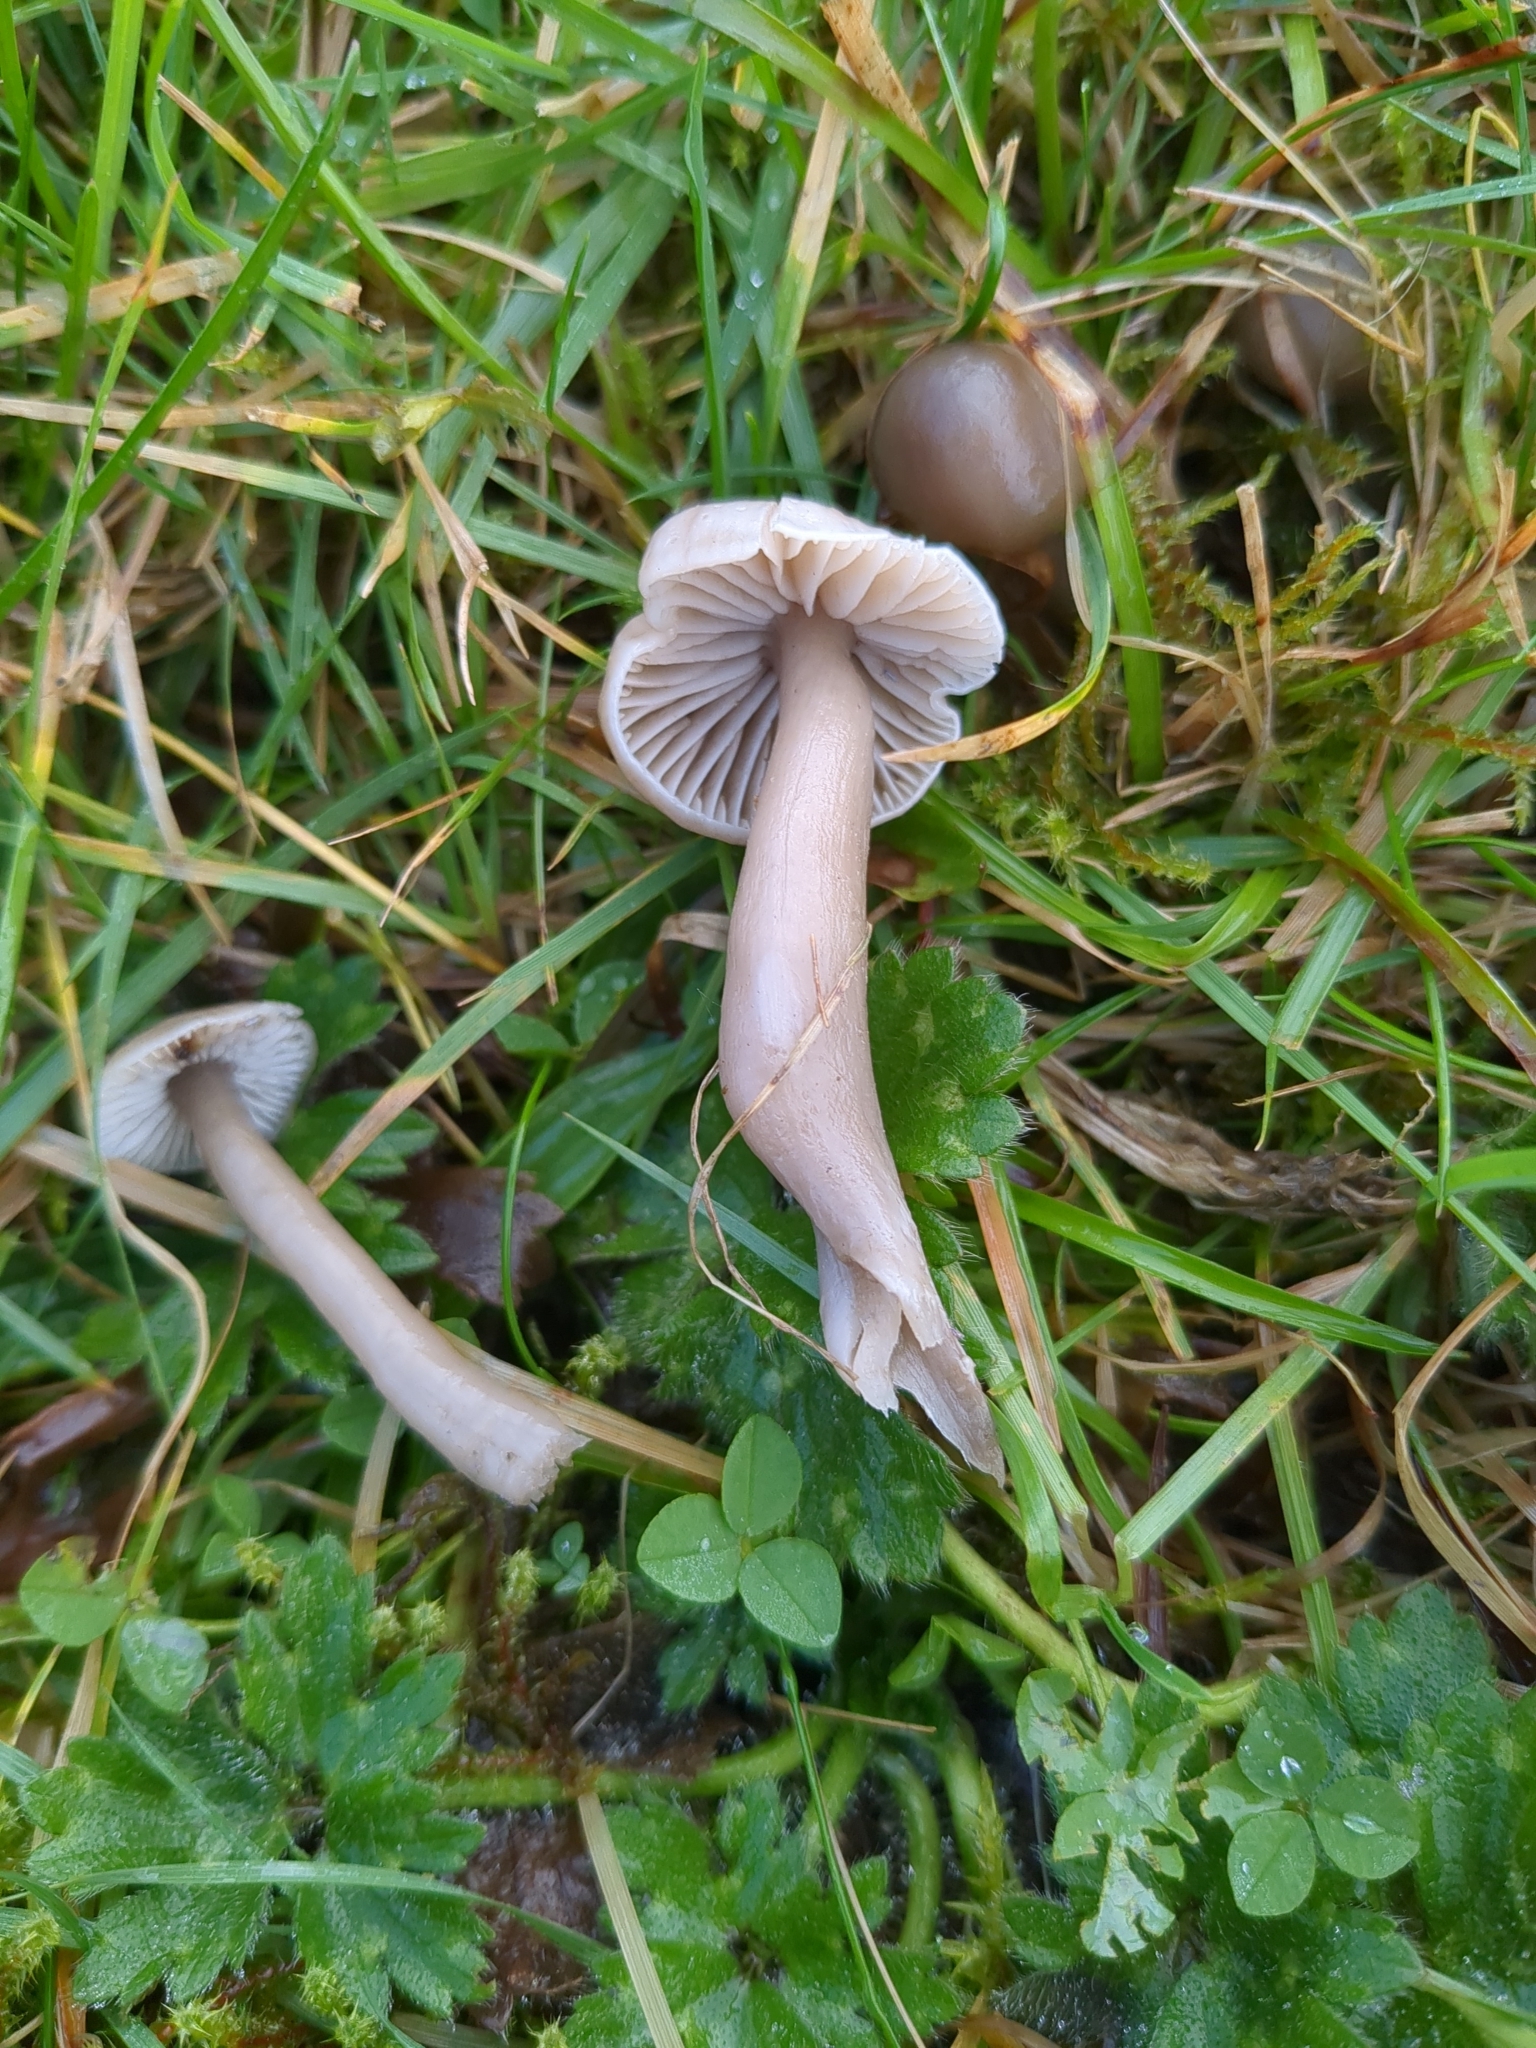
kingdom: Fungi
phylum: Basidiomycota
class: Agaricomycetes
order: Agaricales
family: Hygrophoraceae
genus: Gliophorus
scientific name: Gliophorus irrigatus
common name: Slimy waxcap
